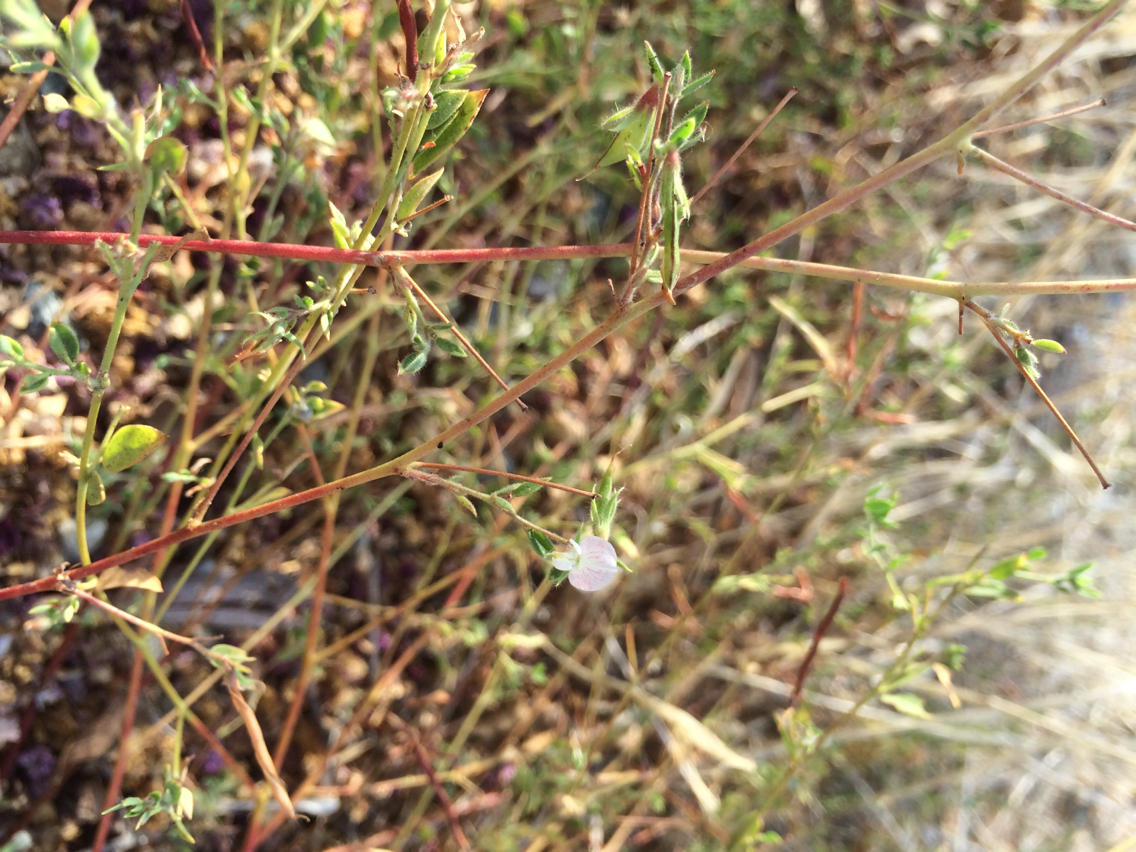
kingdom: Plantae
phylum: Tracheophyta
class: Magnoliopsida
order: Fabales
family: Fabaceae
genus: Acmispon
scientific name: Acmispon americanus
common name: American bird's-foot trefoil
